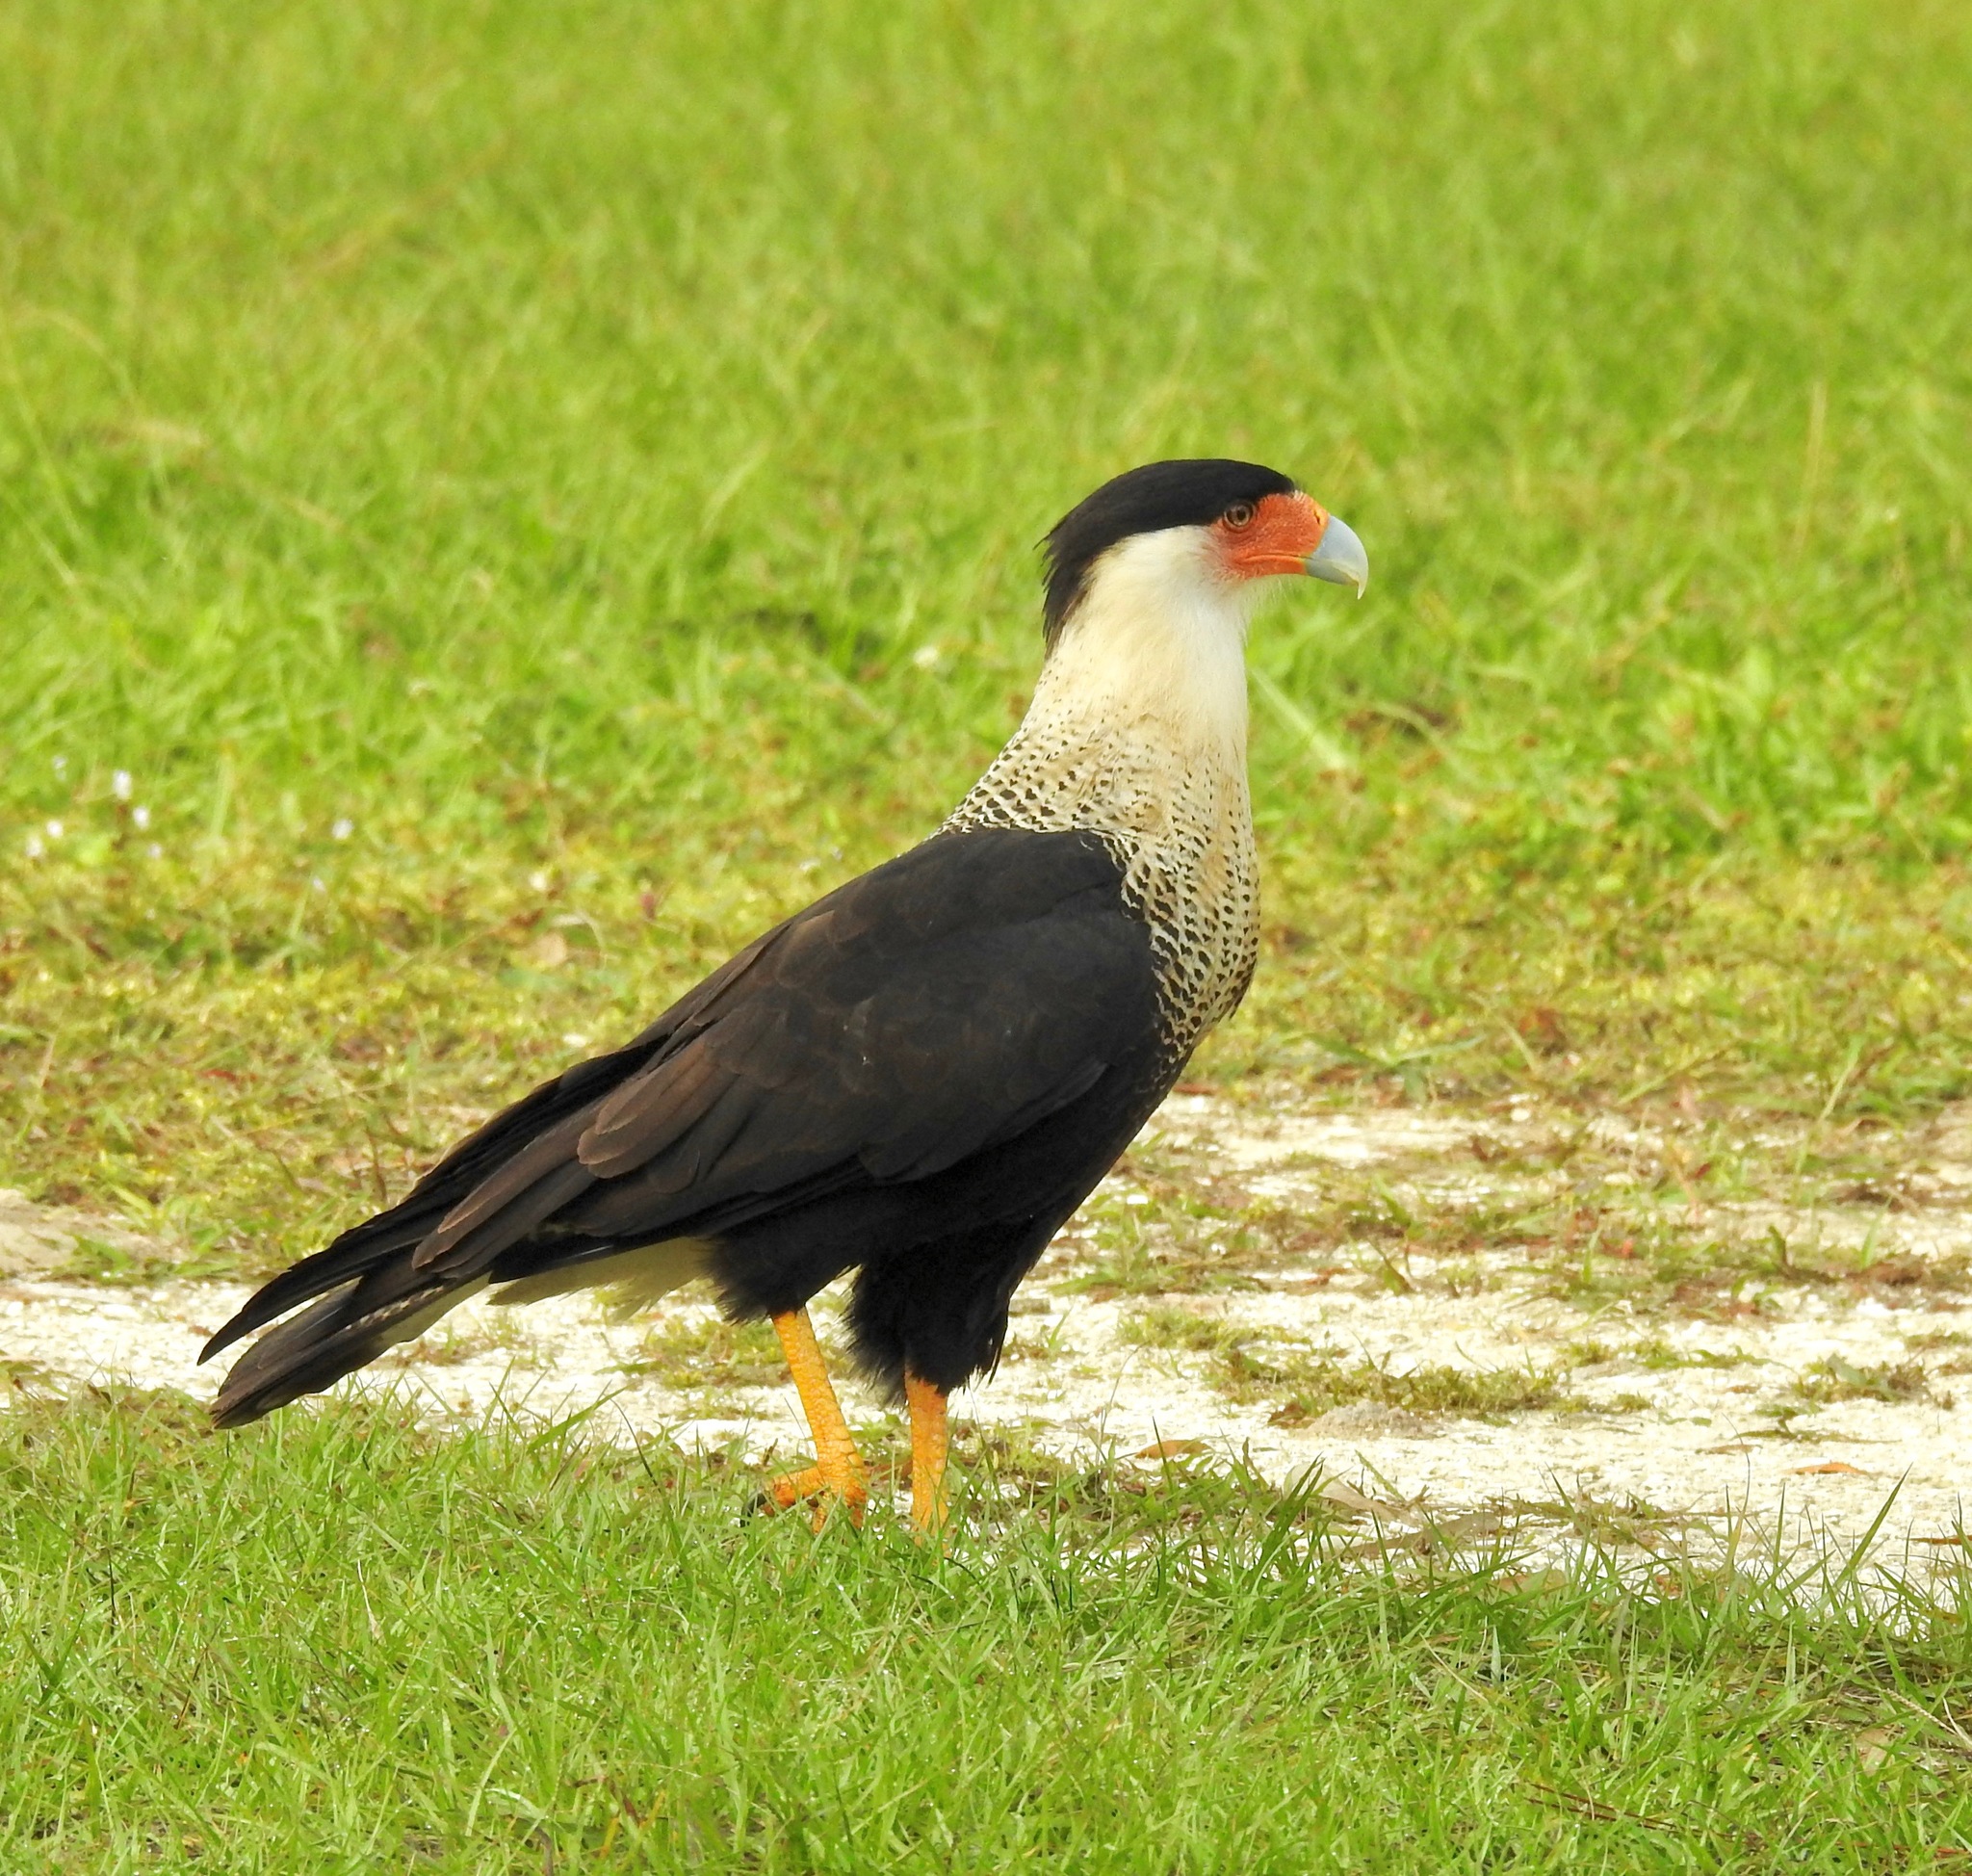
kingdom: Animalia
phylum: Chordata
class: Aves
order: Falconiformes
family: Falconidae
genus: Caracara
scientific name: Caracara plancus
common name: Southern caracara
